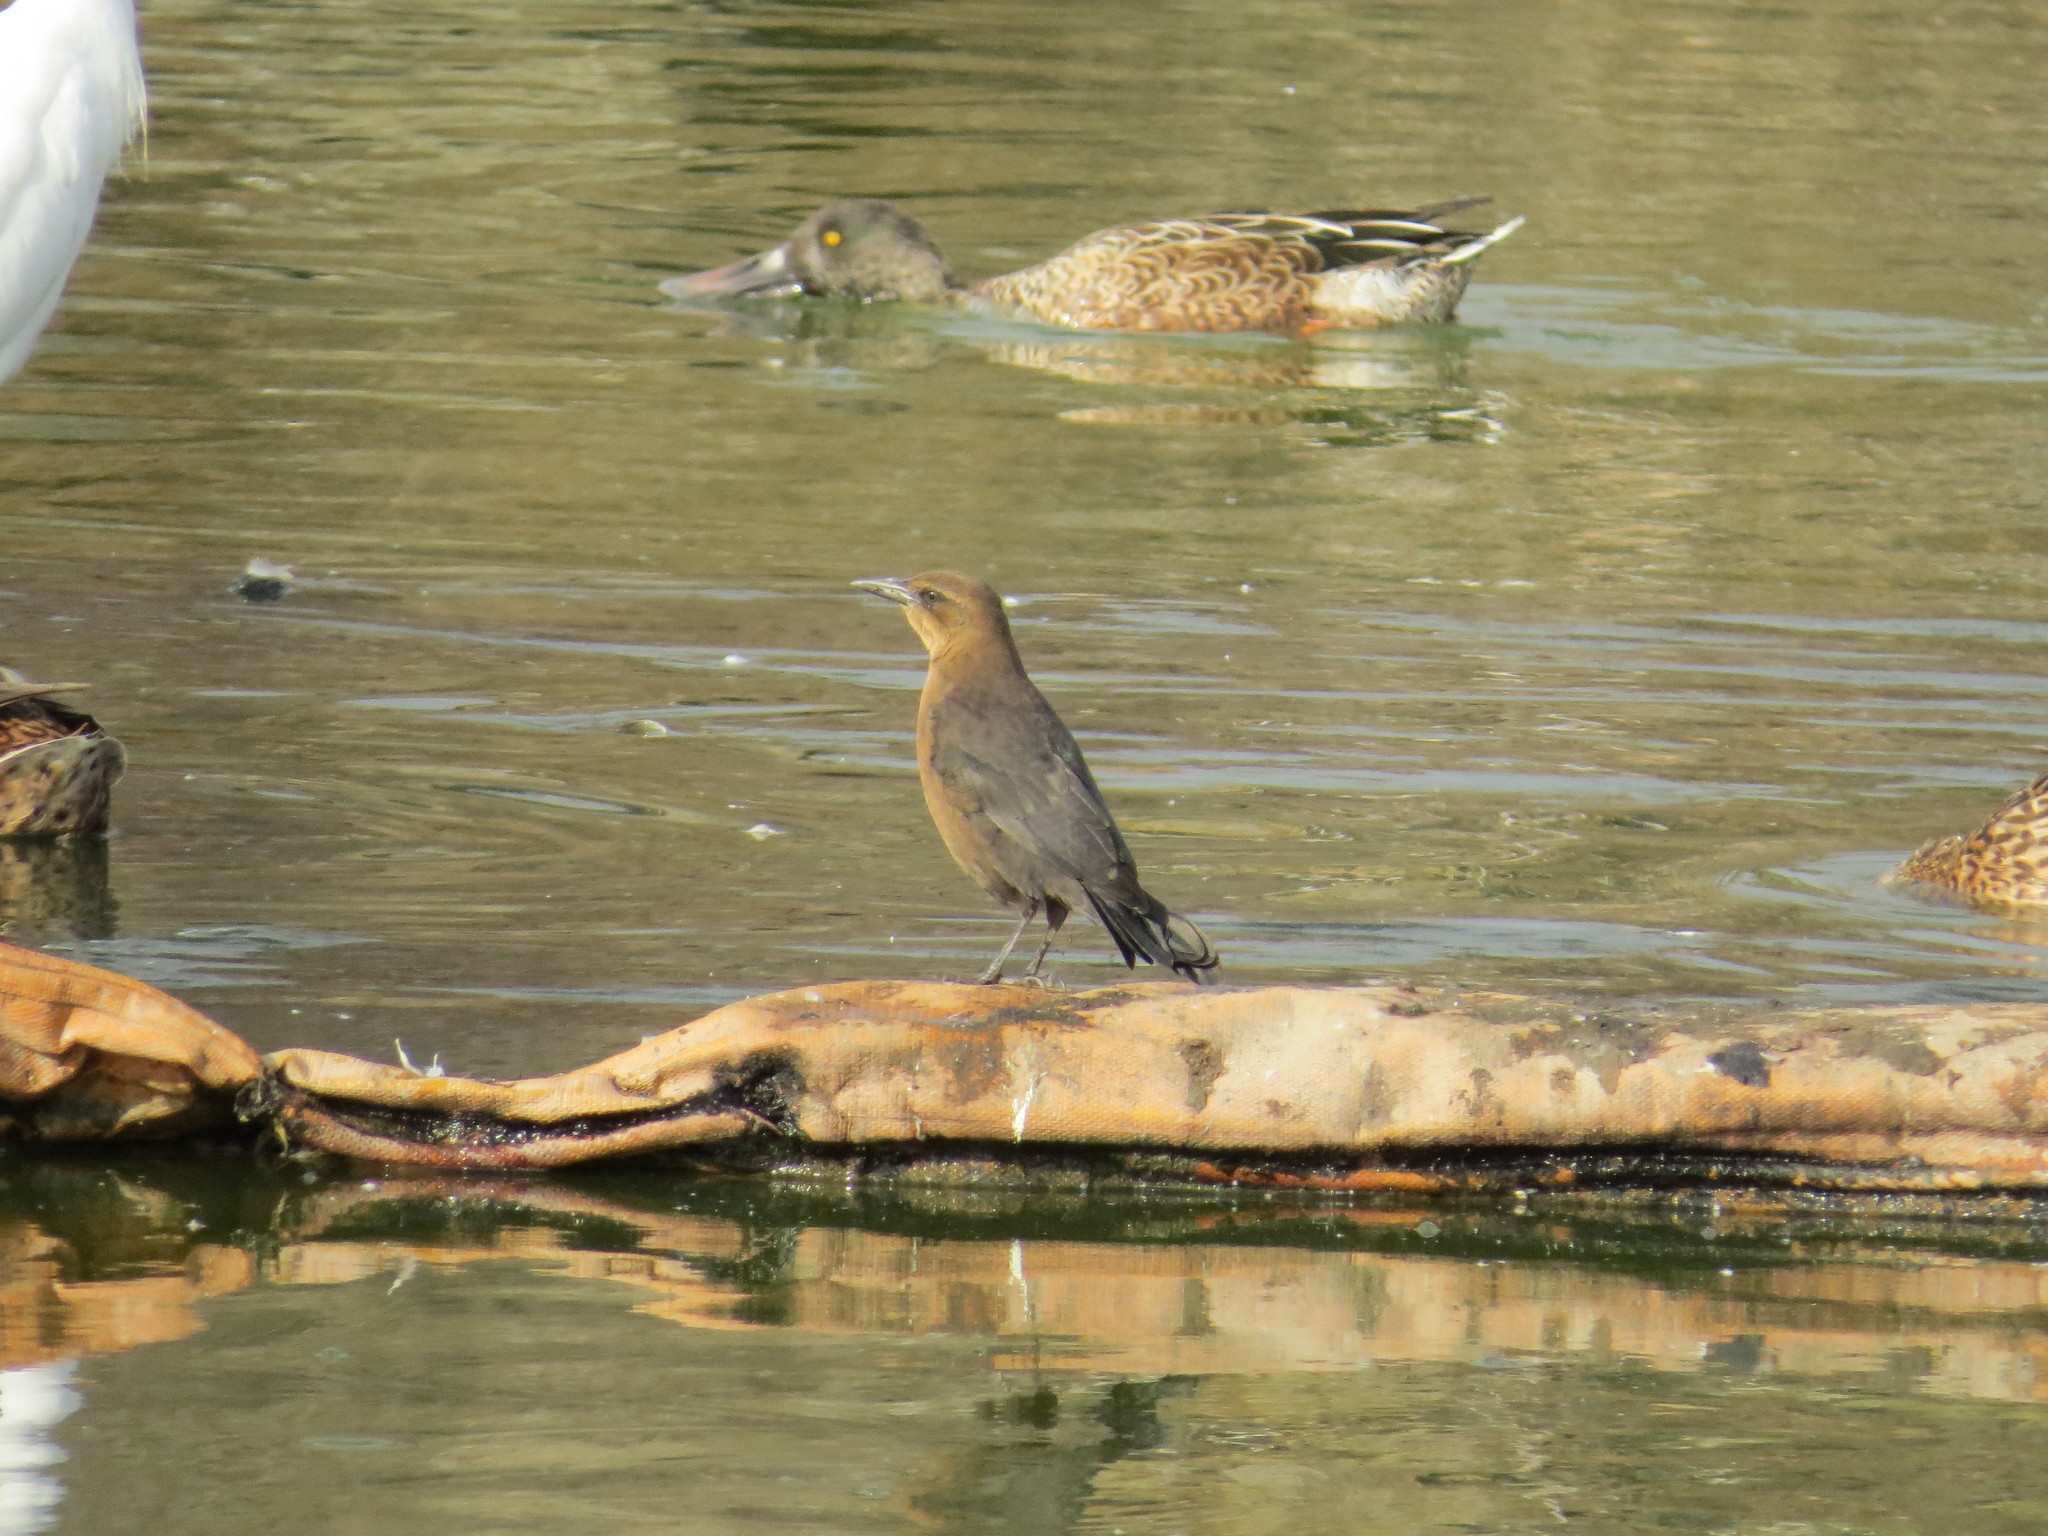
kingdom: Animalia
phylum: Chordata
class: Aves
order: Passeriformes
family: Icteridae
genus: Quiscalus
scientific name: Quiscalus mexicanus
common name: Great-tailed grackle
